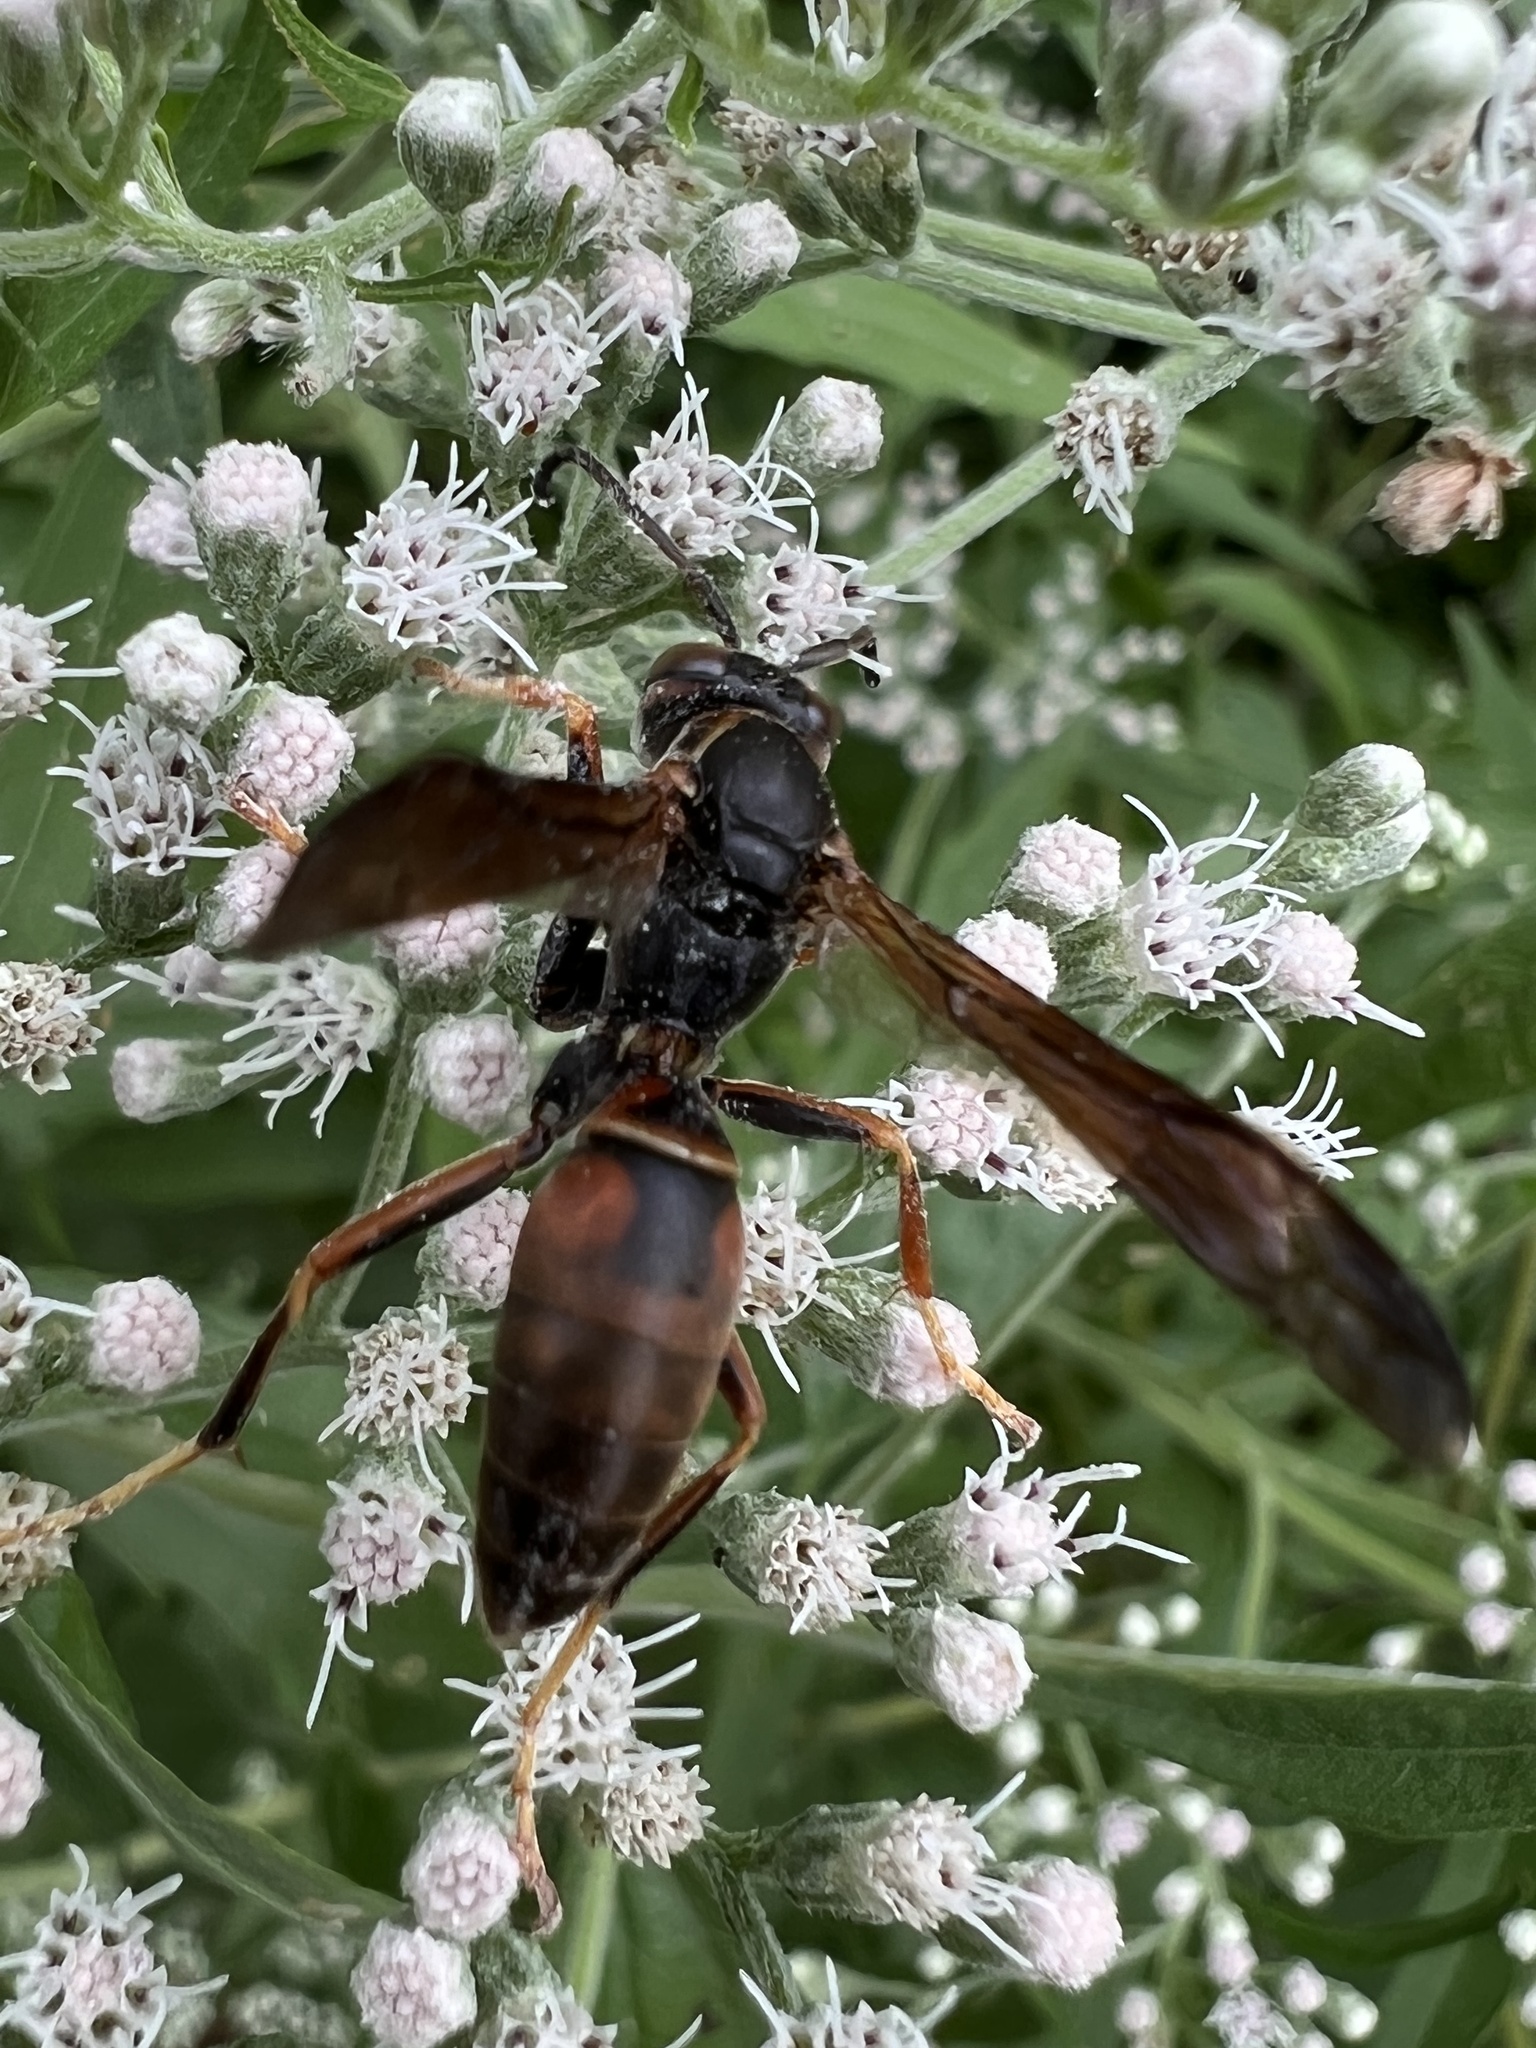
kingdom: Animalia
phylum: Arthropoda
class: Insecta
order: Hymenoptera
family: Eumenidae
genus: Polistes
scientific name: Polistes fuscatus
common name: Dark paper wasp
